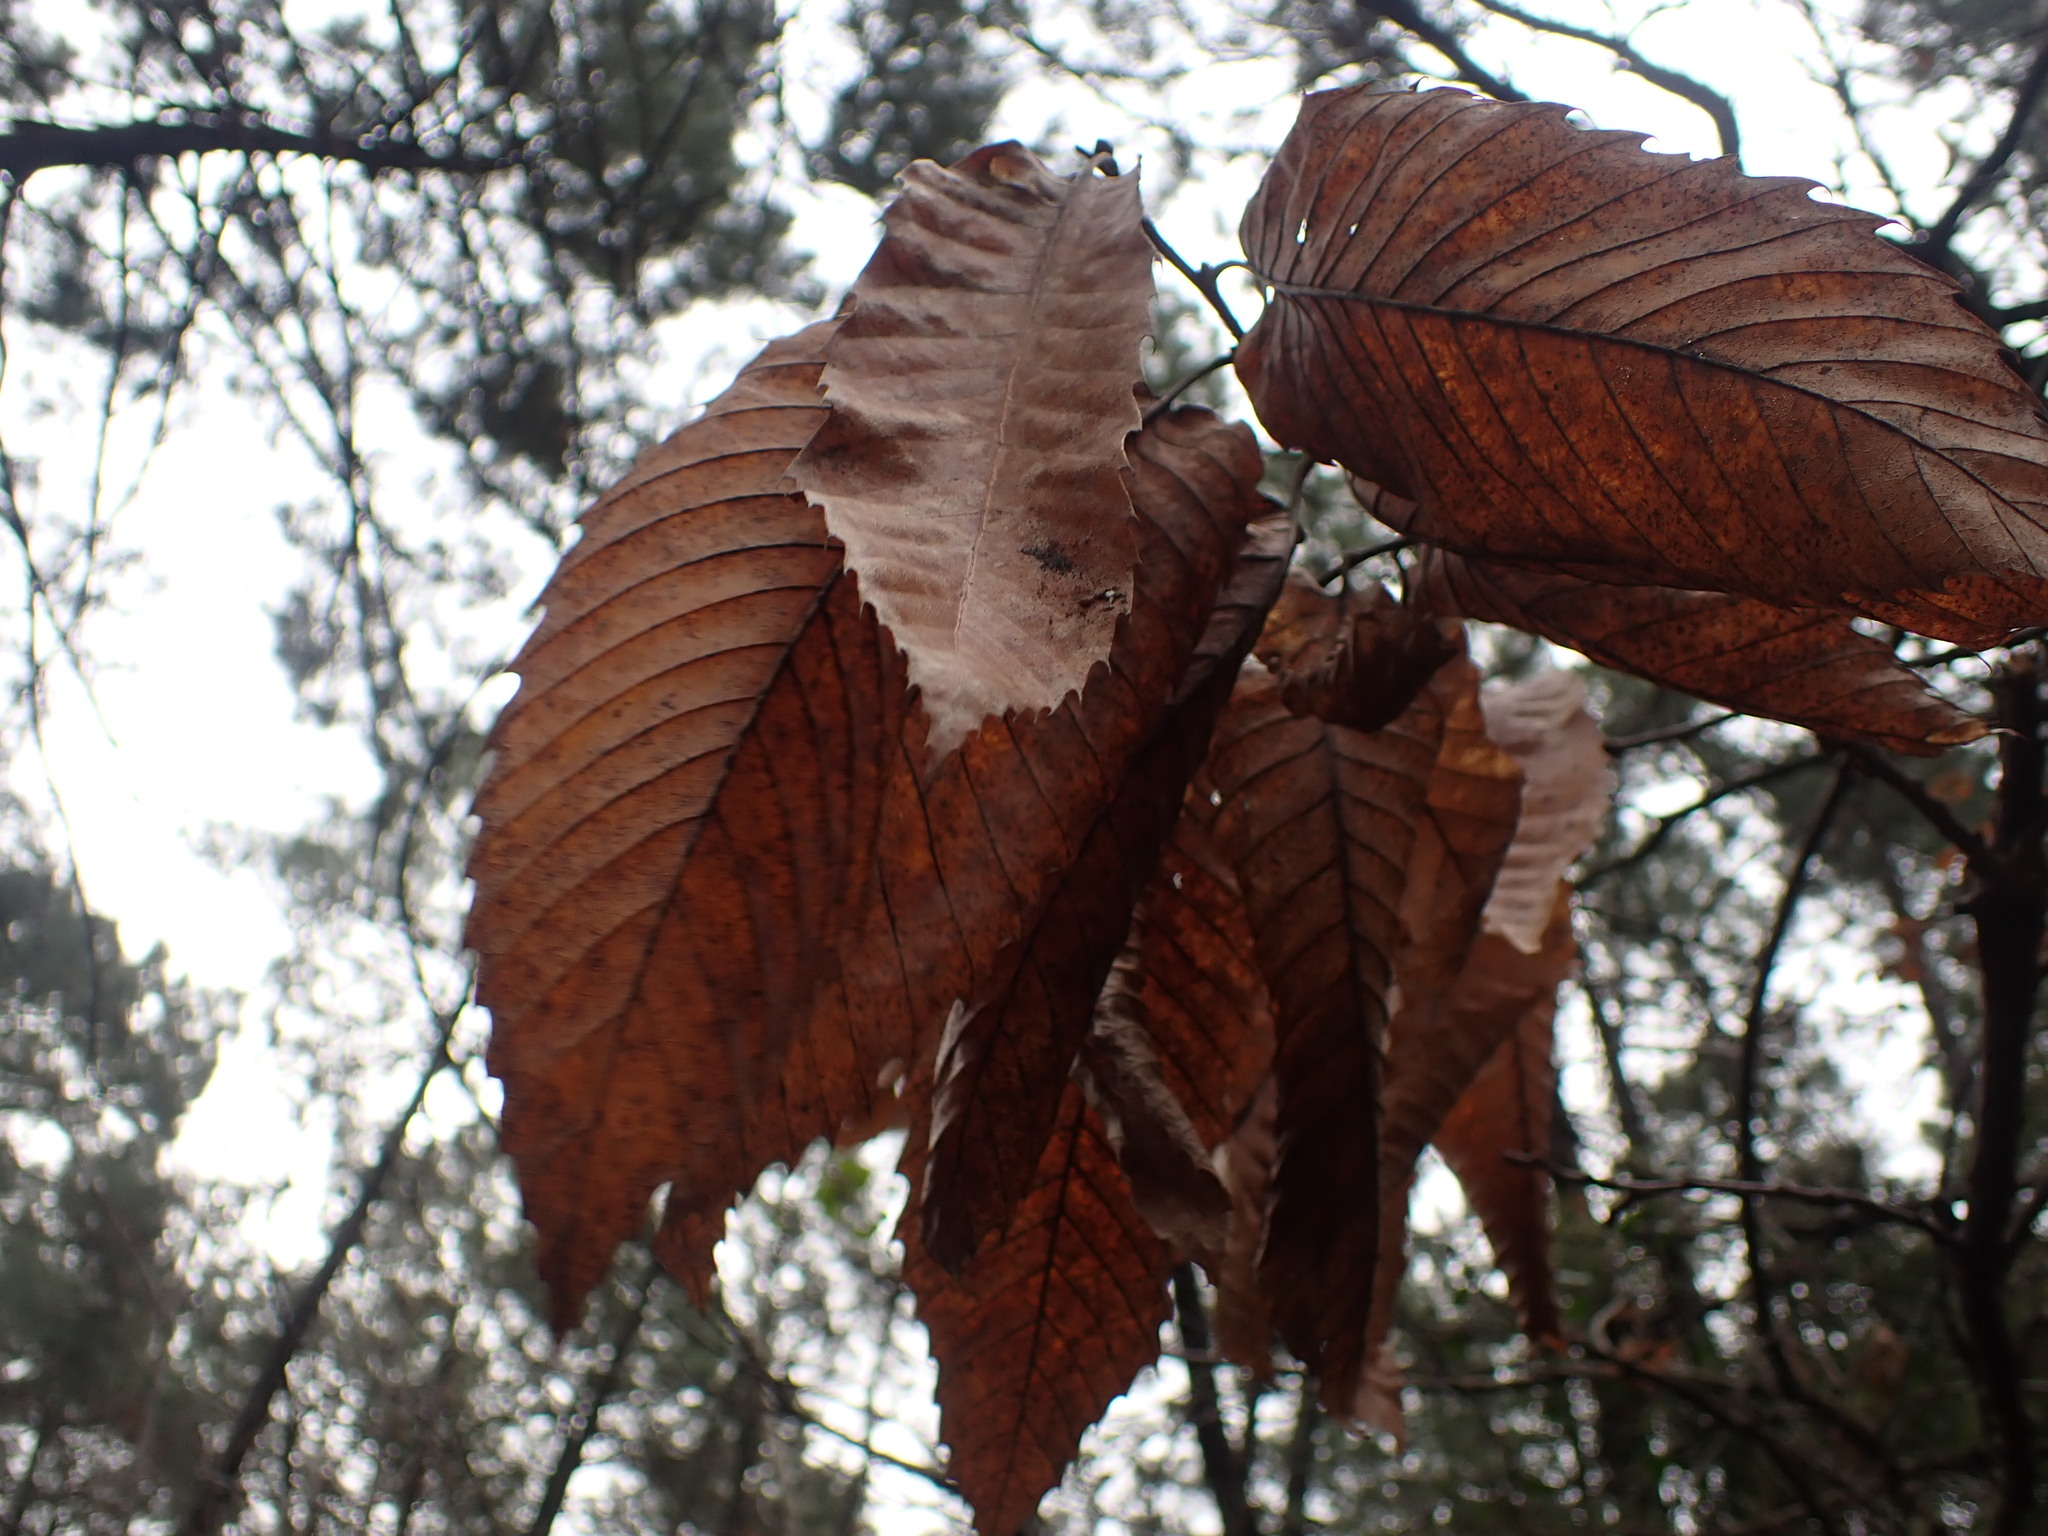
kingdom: Plantae
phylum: Tracheophyta
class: Magnoliopsida
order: Fagales
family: Fagaceae
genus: Castanea
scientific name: Castanea sativa
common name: Sweet chestnut
